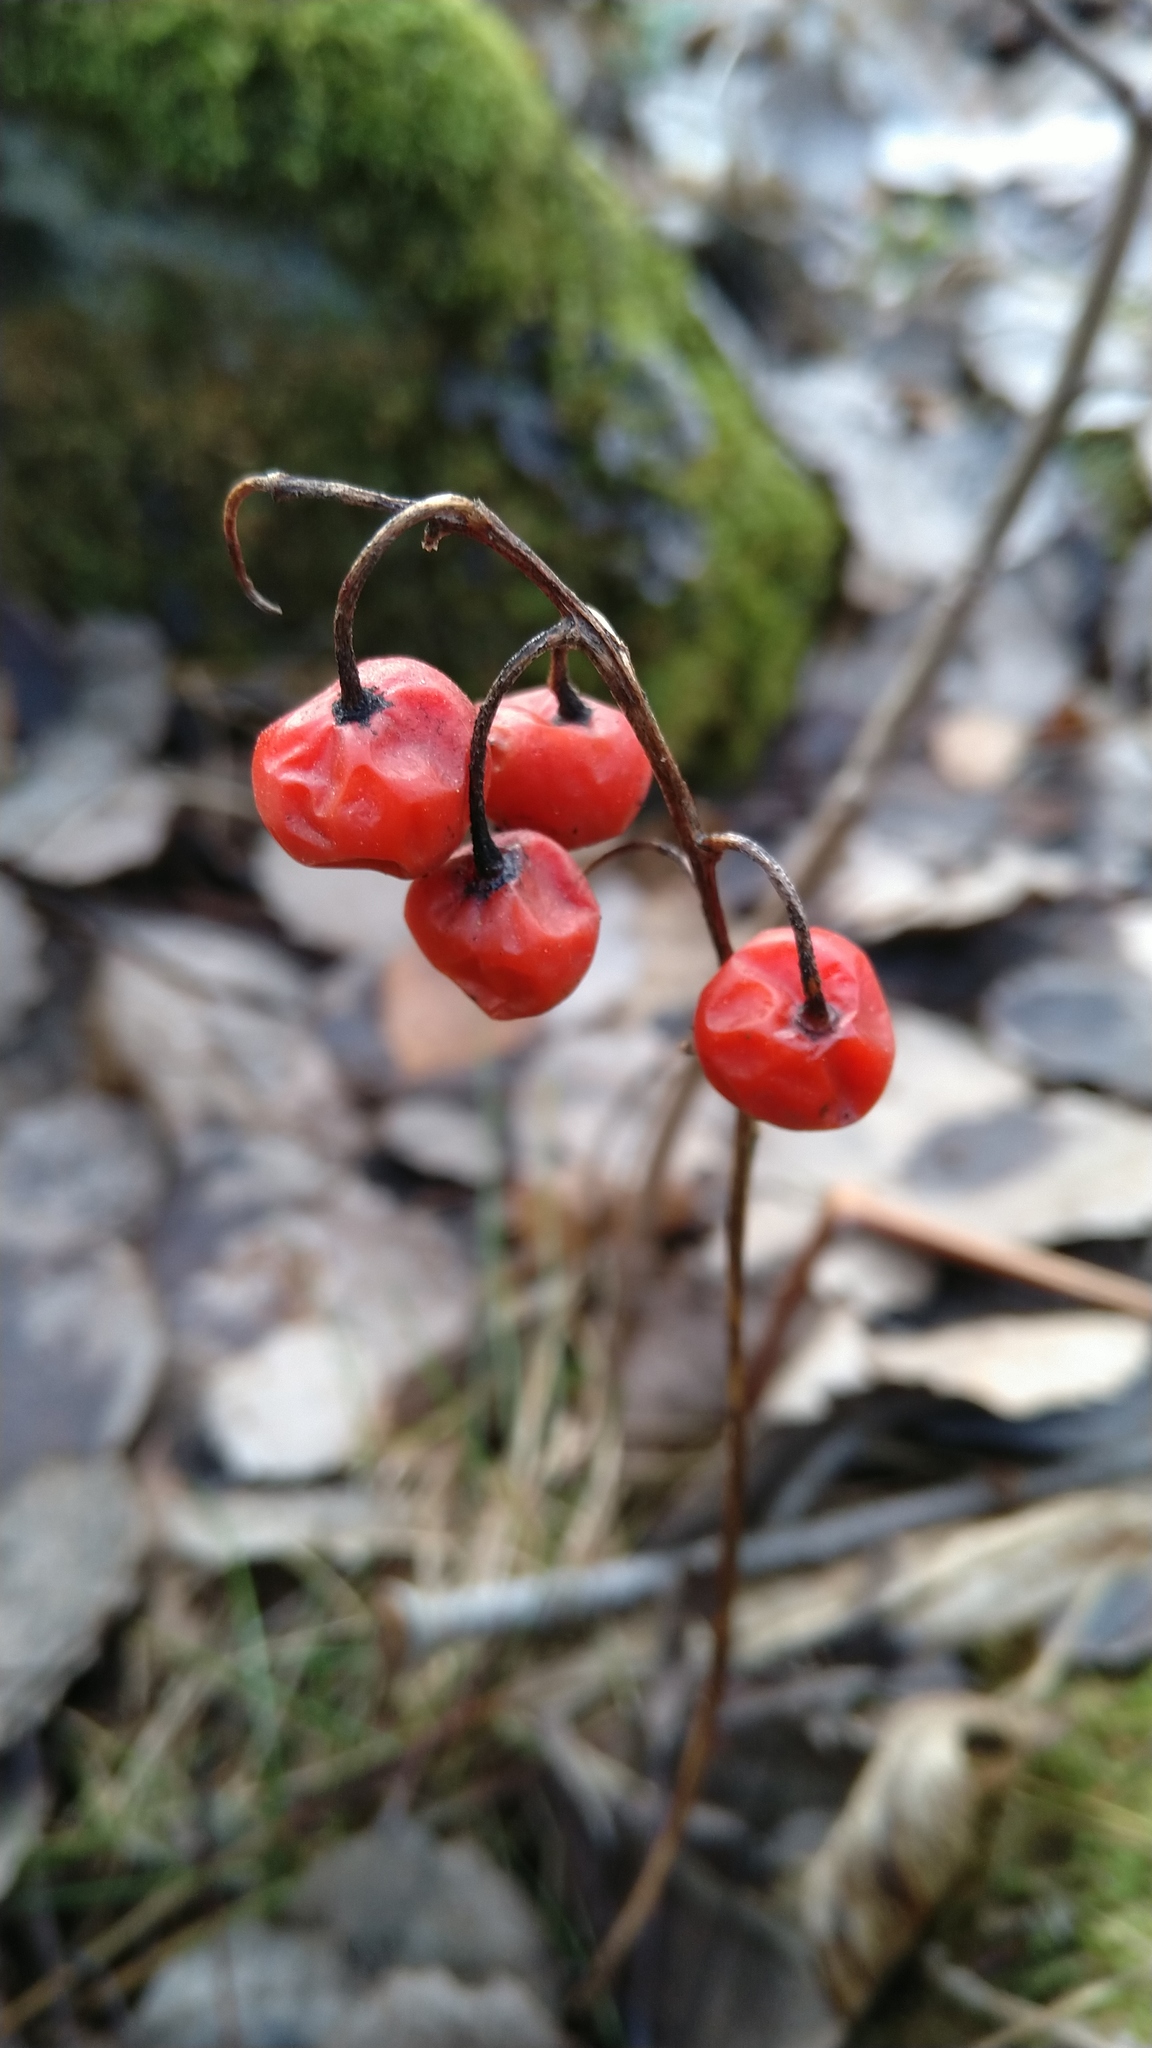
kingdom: Plantae
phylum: Tracheophyta
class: Liliopsida
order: Asparagales
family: Asparagaceae
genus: Convallaria
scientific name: Convallaria majalis
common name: Lily-of-the-valley
